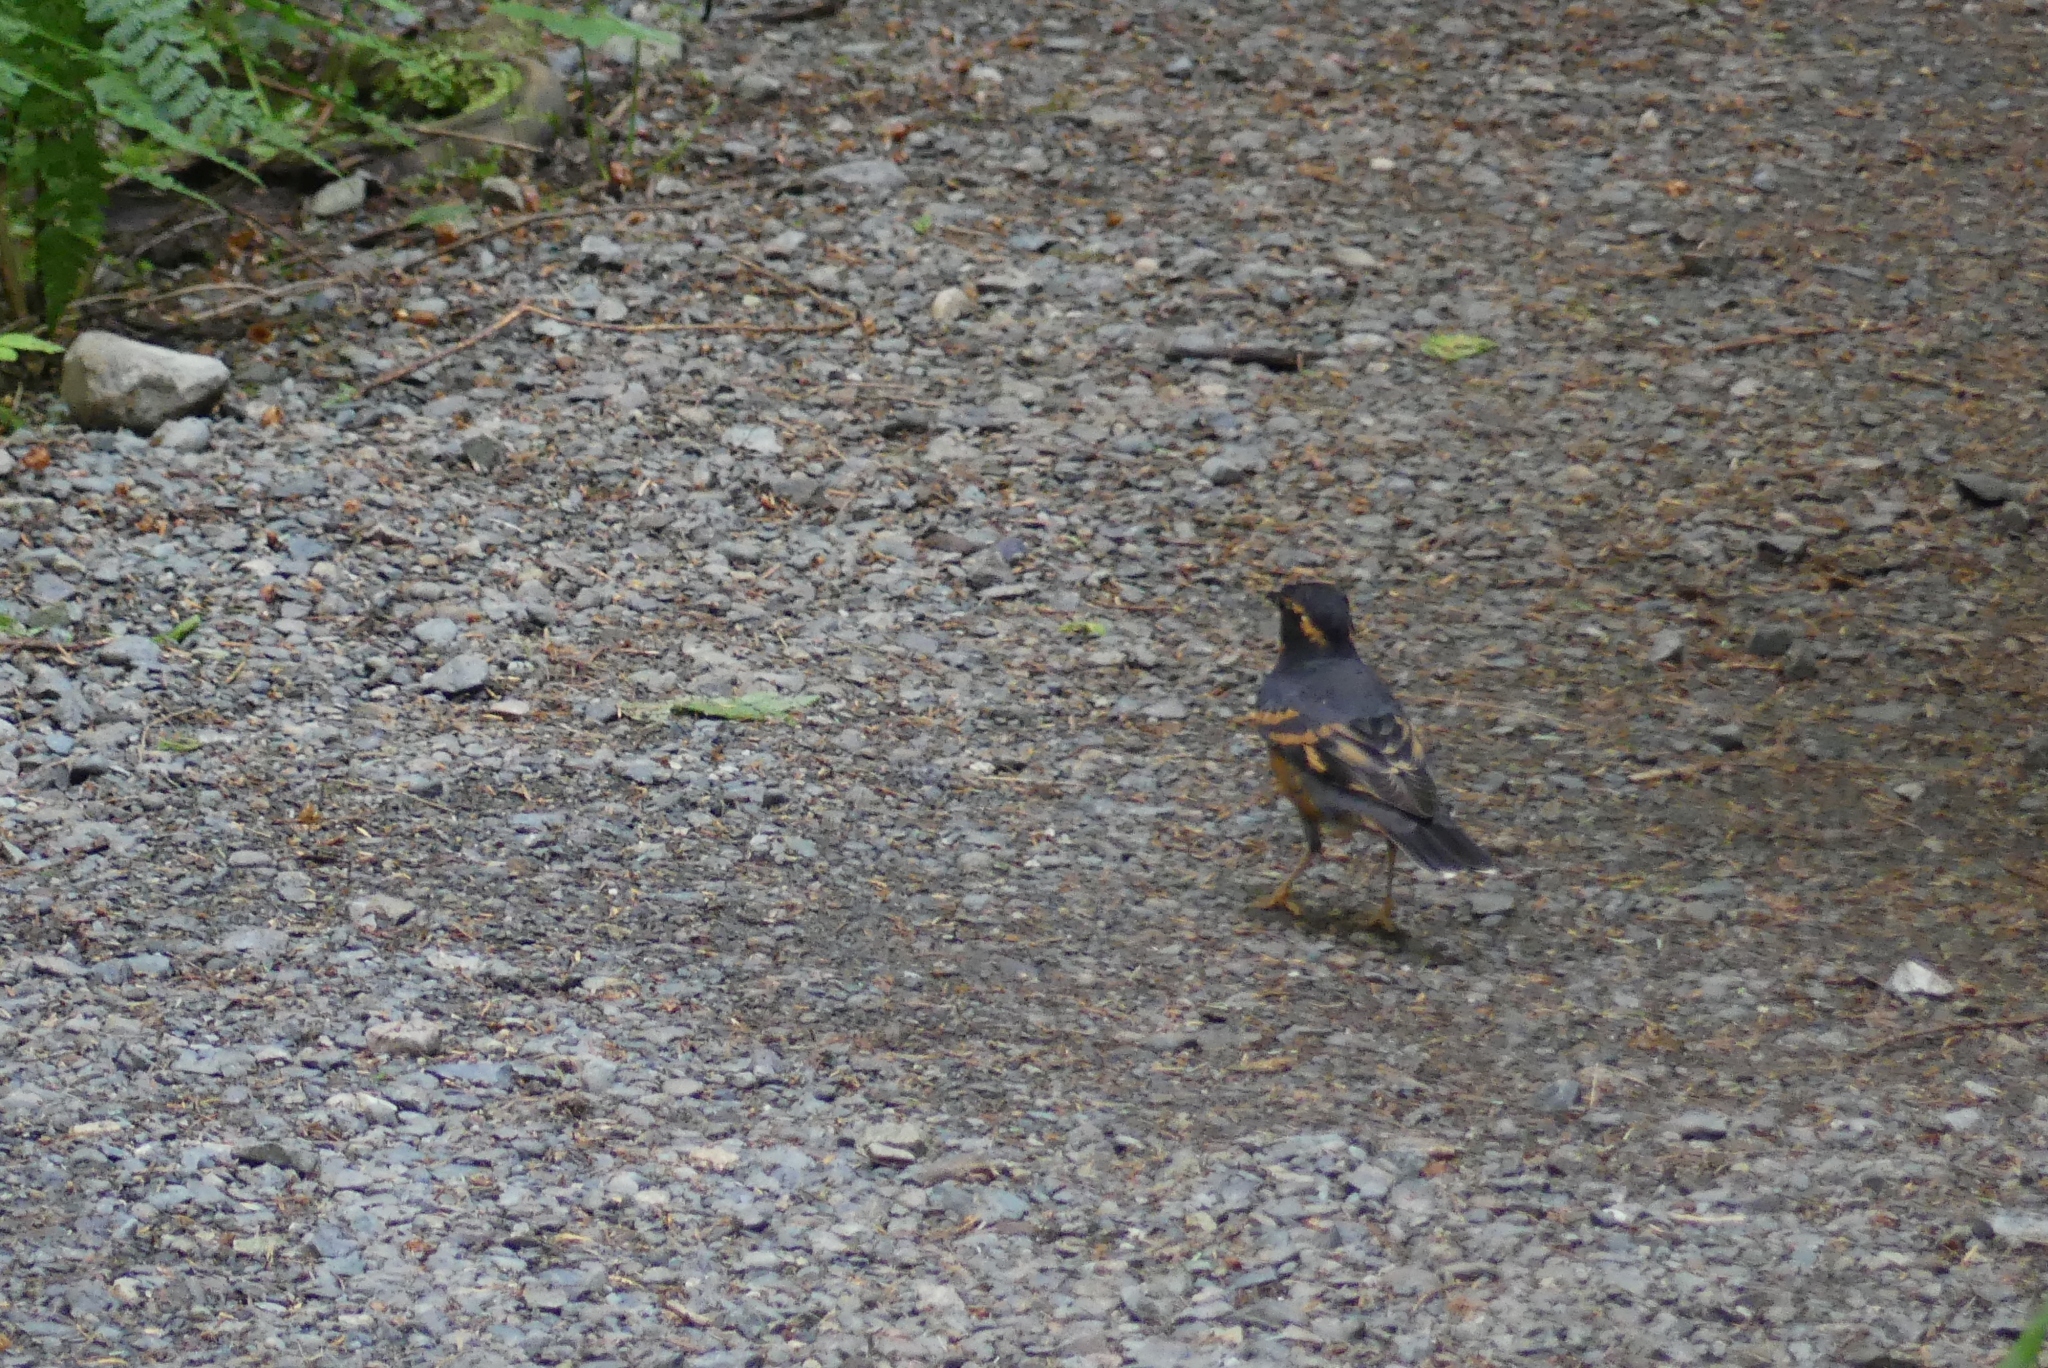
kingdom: Animalia
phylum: Chordata
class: Aves
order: Passeriformes
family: Turdidae
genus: Ixoreus
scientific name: Ixoreus naevius
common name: Varied thrush
